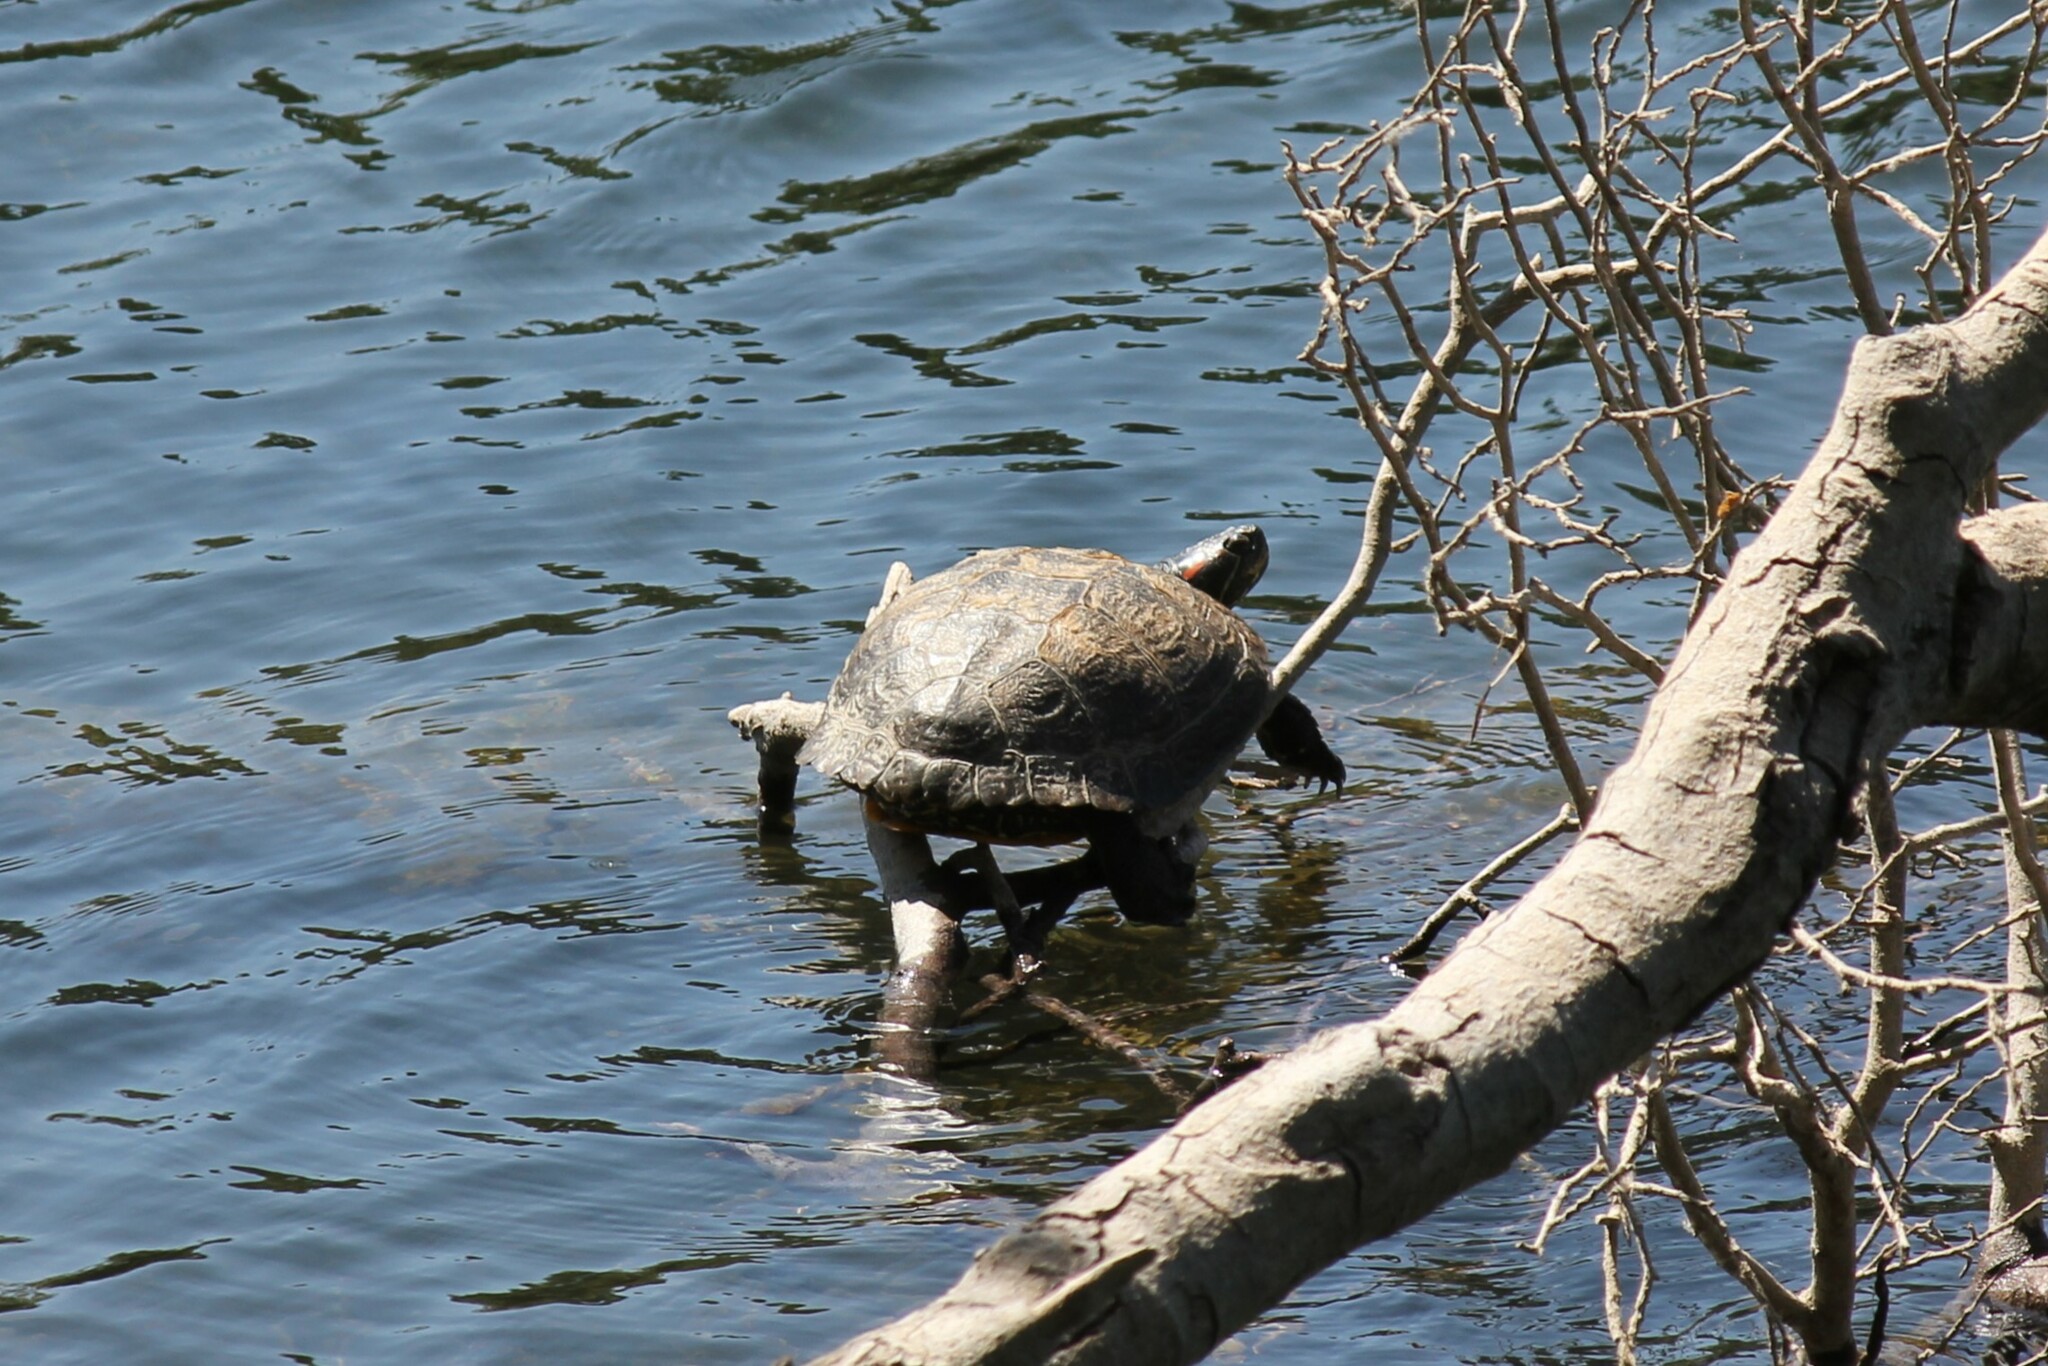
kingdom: Animalia
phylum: Chordata
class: Testudines
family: Emydidae
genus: Trachemys
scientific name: Trachemys scripta
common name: Slider
